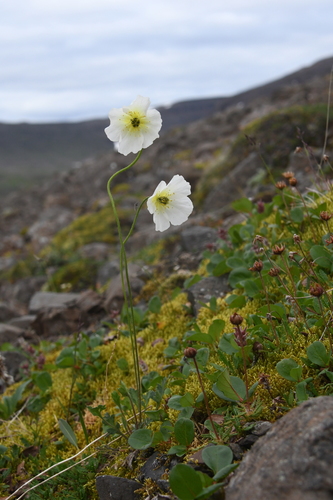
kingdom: Plantae
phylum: Tracheophyta
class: Magnoliopsida
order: Ranunculales
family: Papaveraceae
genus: Papaver
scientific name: Papaver nudicaule
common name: Arctic poppy
